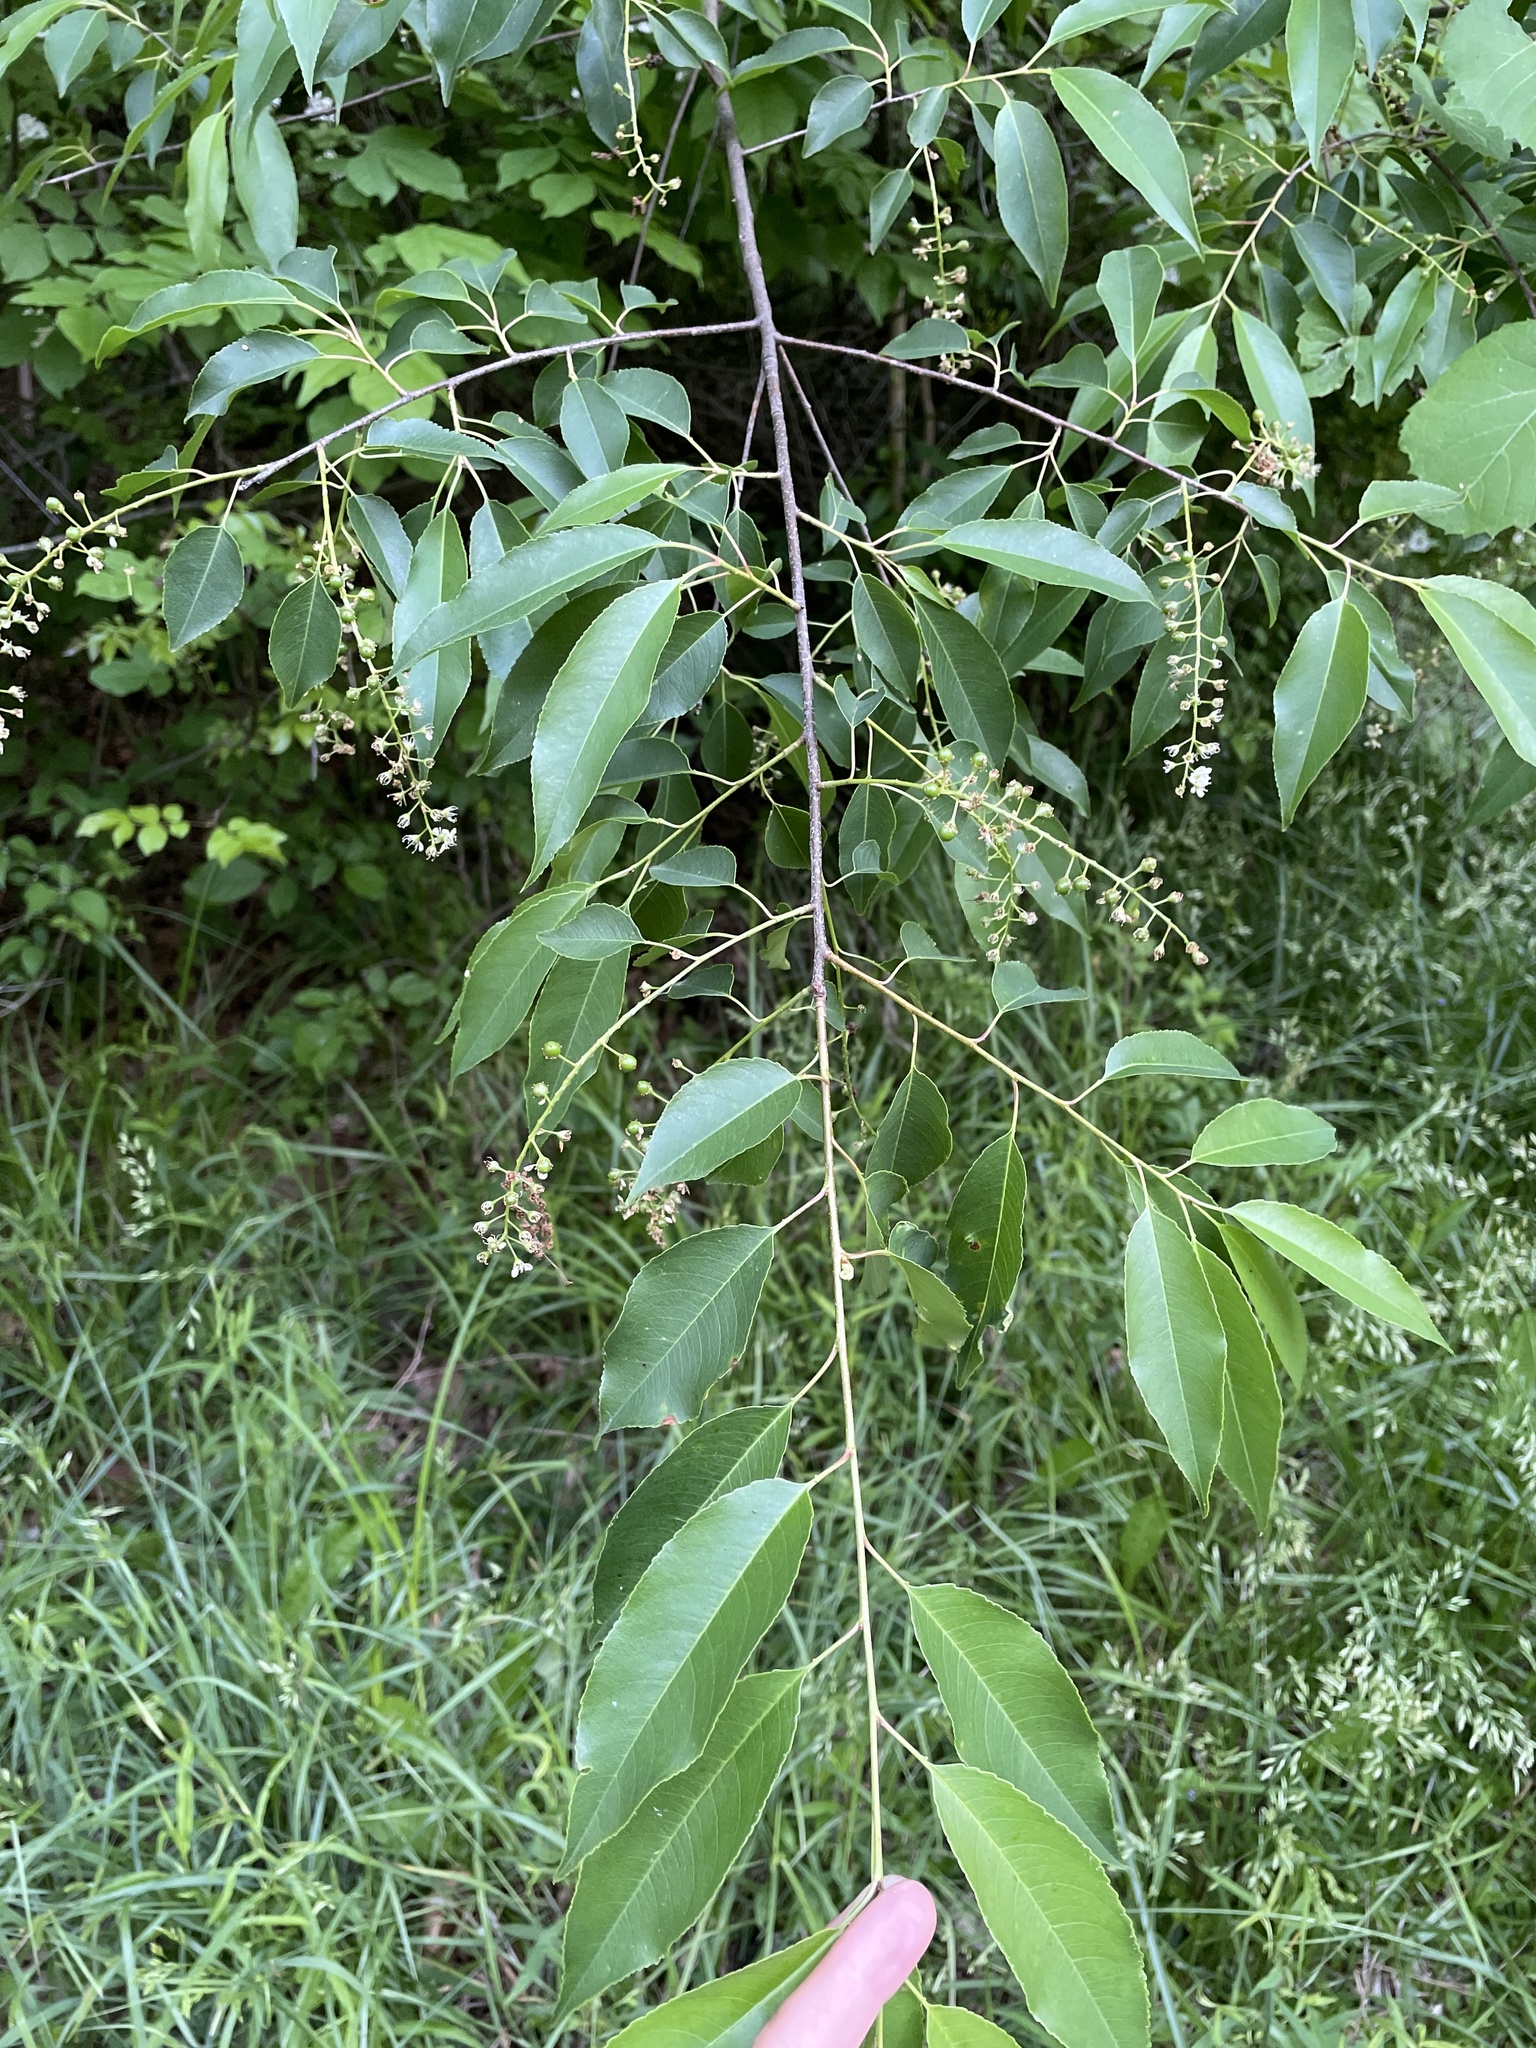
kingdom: Plantae
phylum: Tracheophyta
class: Magnoliopsida
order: Rosales
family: Rosaceae
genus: Prunus
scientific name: Prunus serotina
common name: Black cherry
